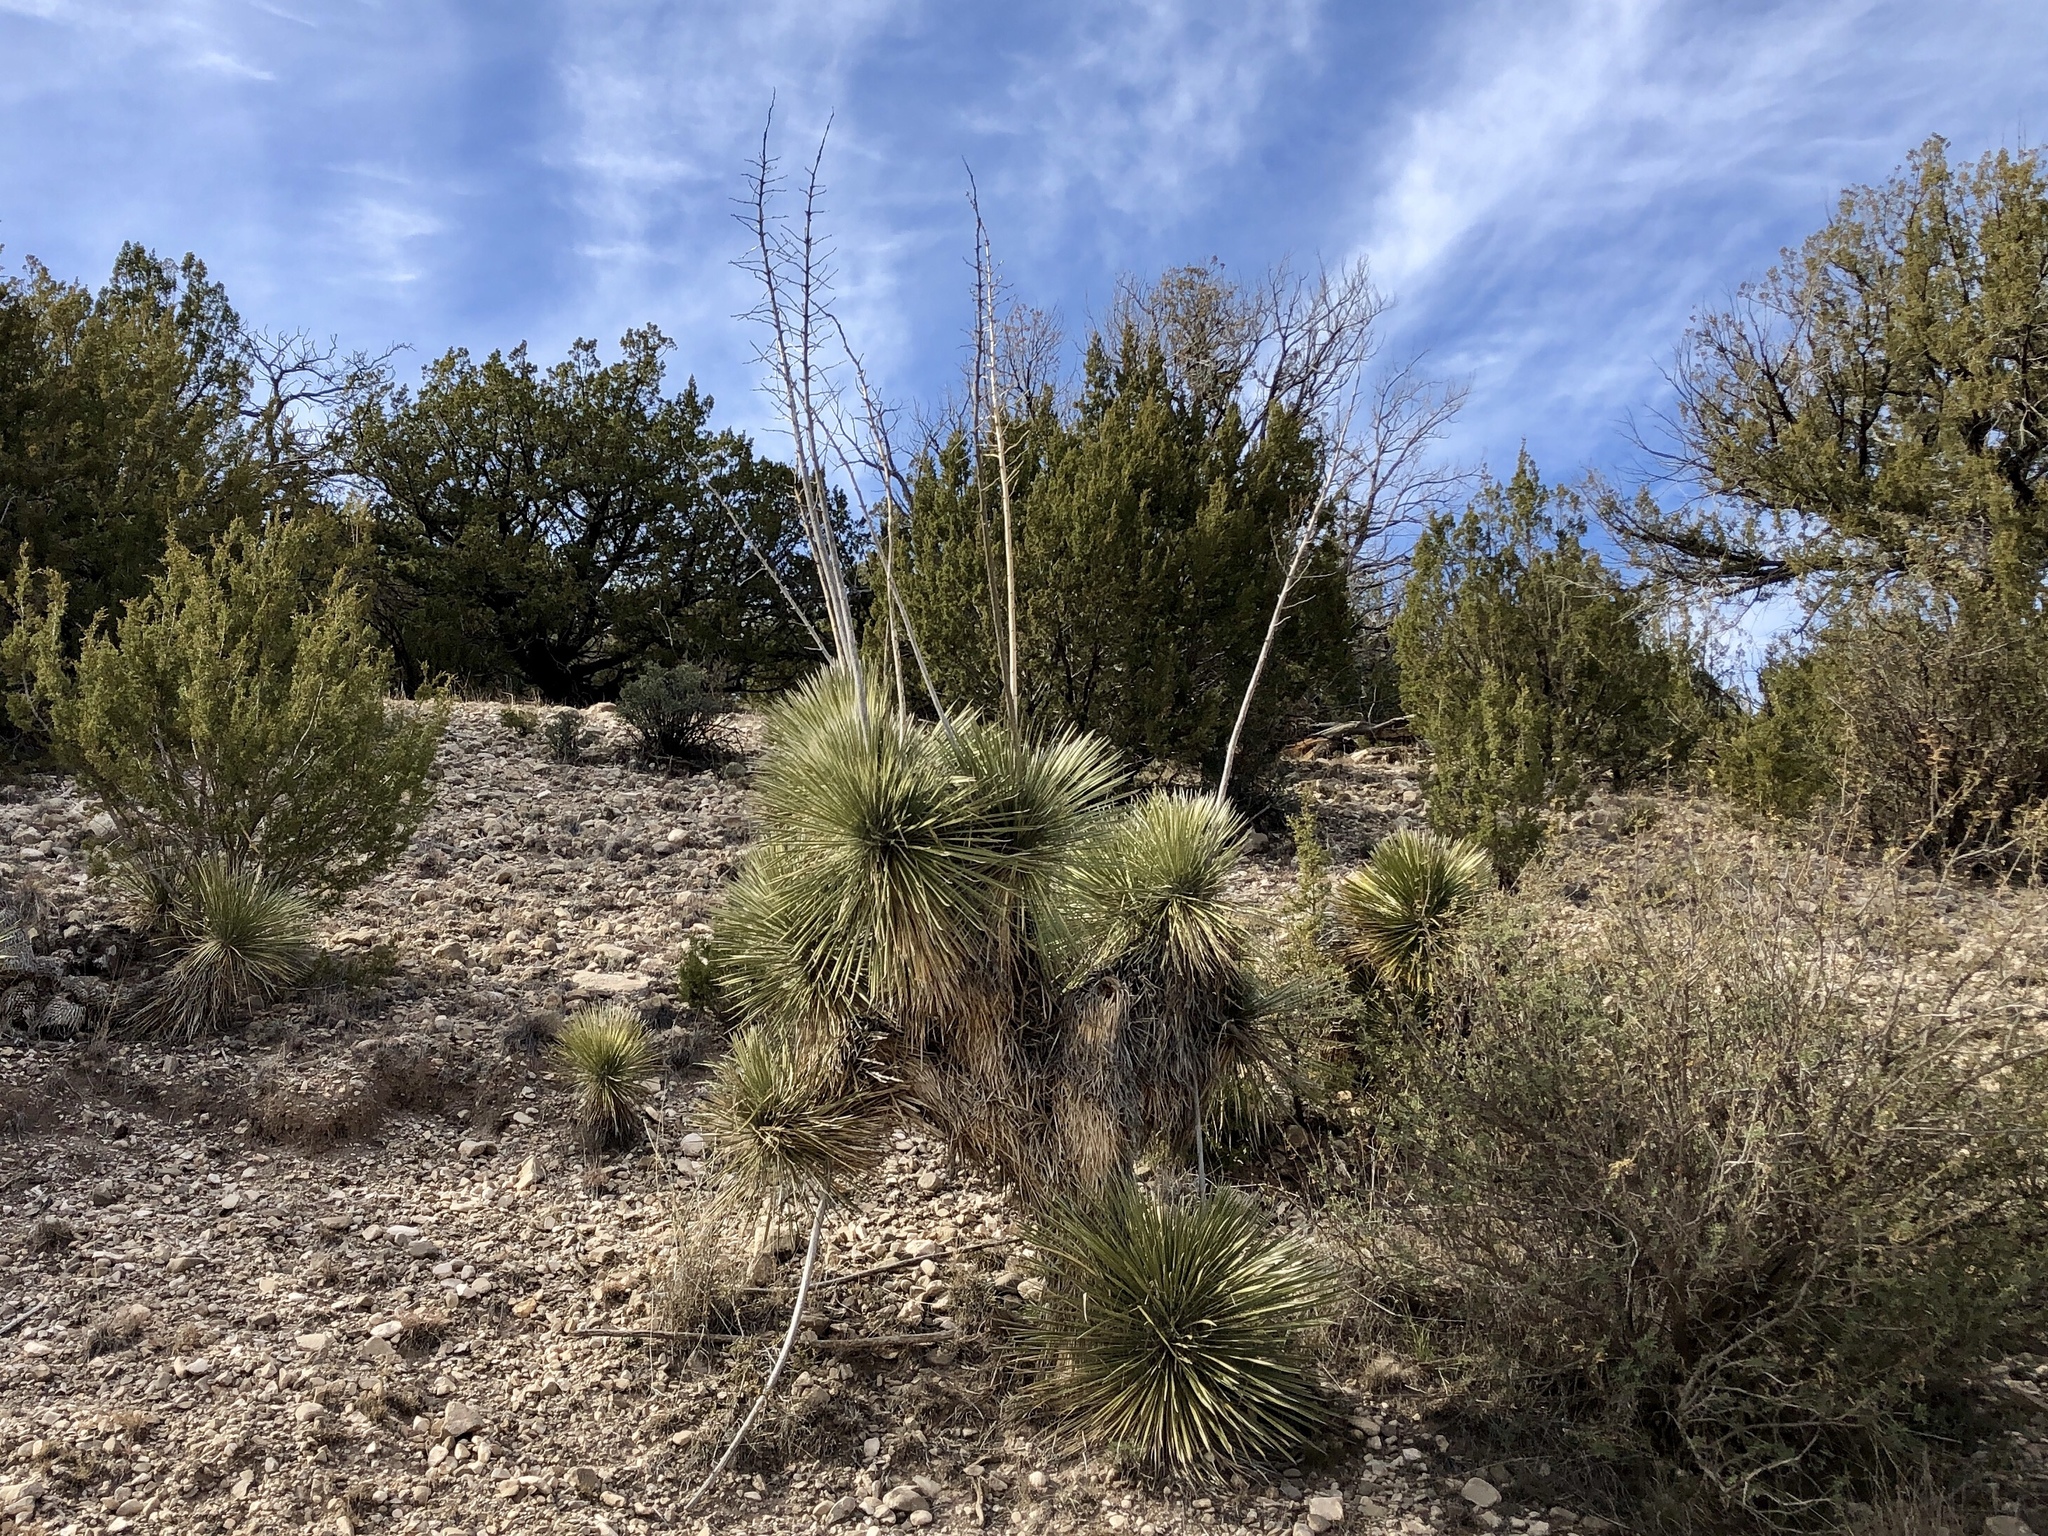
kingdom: Plantae
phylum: Tracheophyta
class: Liliopsida
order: Asparagales
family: Asparagaceae
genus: Yucca
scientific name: Yucca elata
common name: Palmella
